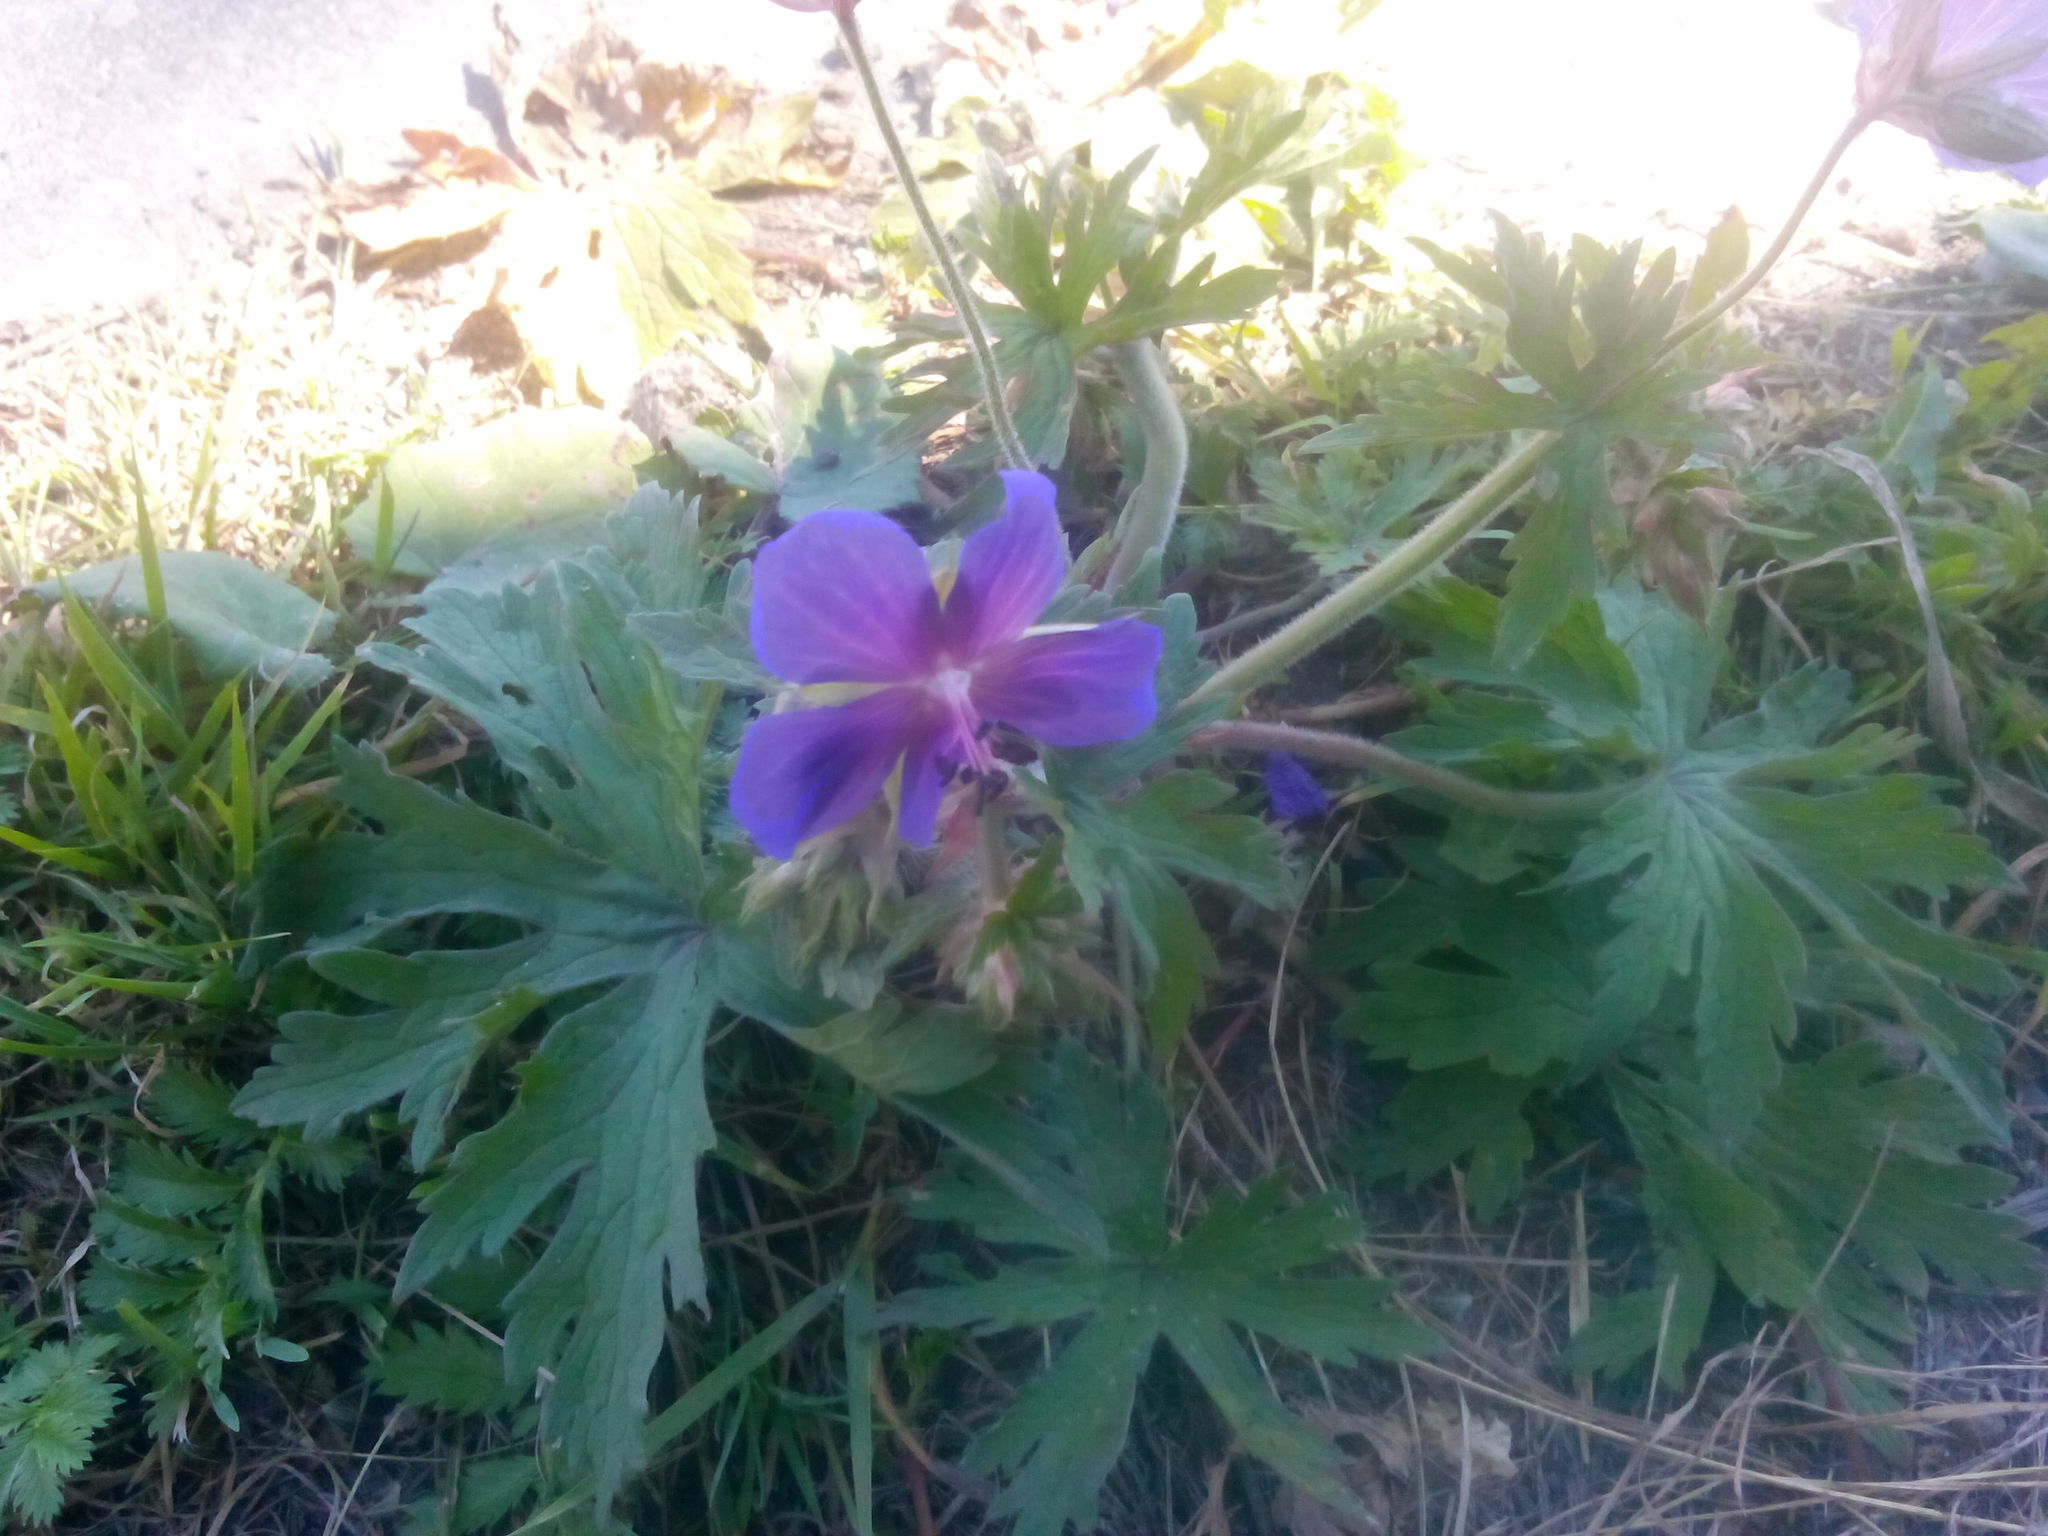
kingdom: Plantae
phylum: Tracheophyta
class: Magnoliopsida
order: Geraniales
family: Geraniaceae
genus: Geranium
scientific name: Geranium pratense
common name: Meadow crane's-bill
